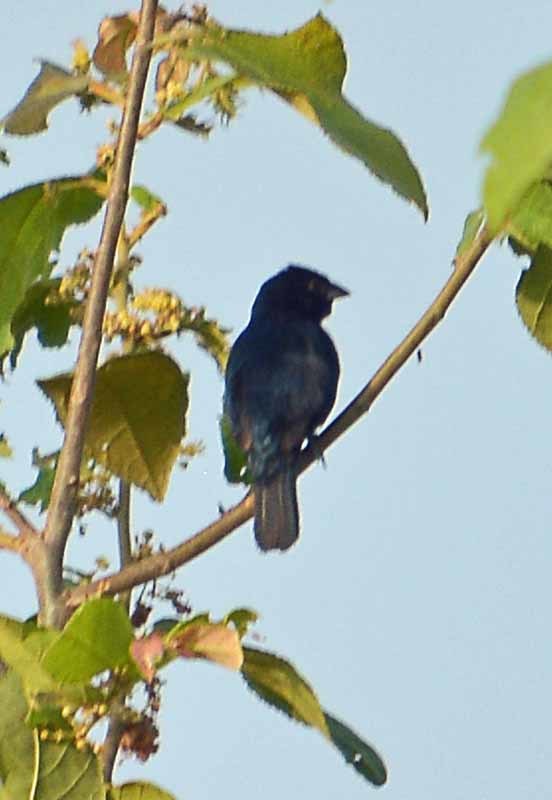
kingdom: Animalia
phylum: Chordata
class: Aves
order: Passeriformes
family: Thraupidae
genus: Volatinia
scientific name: Volatinia jacarina
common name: Blue-black grassquit
